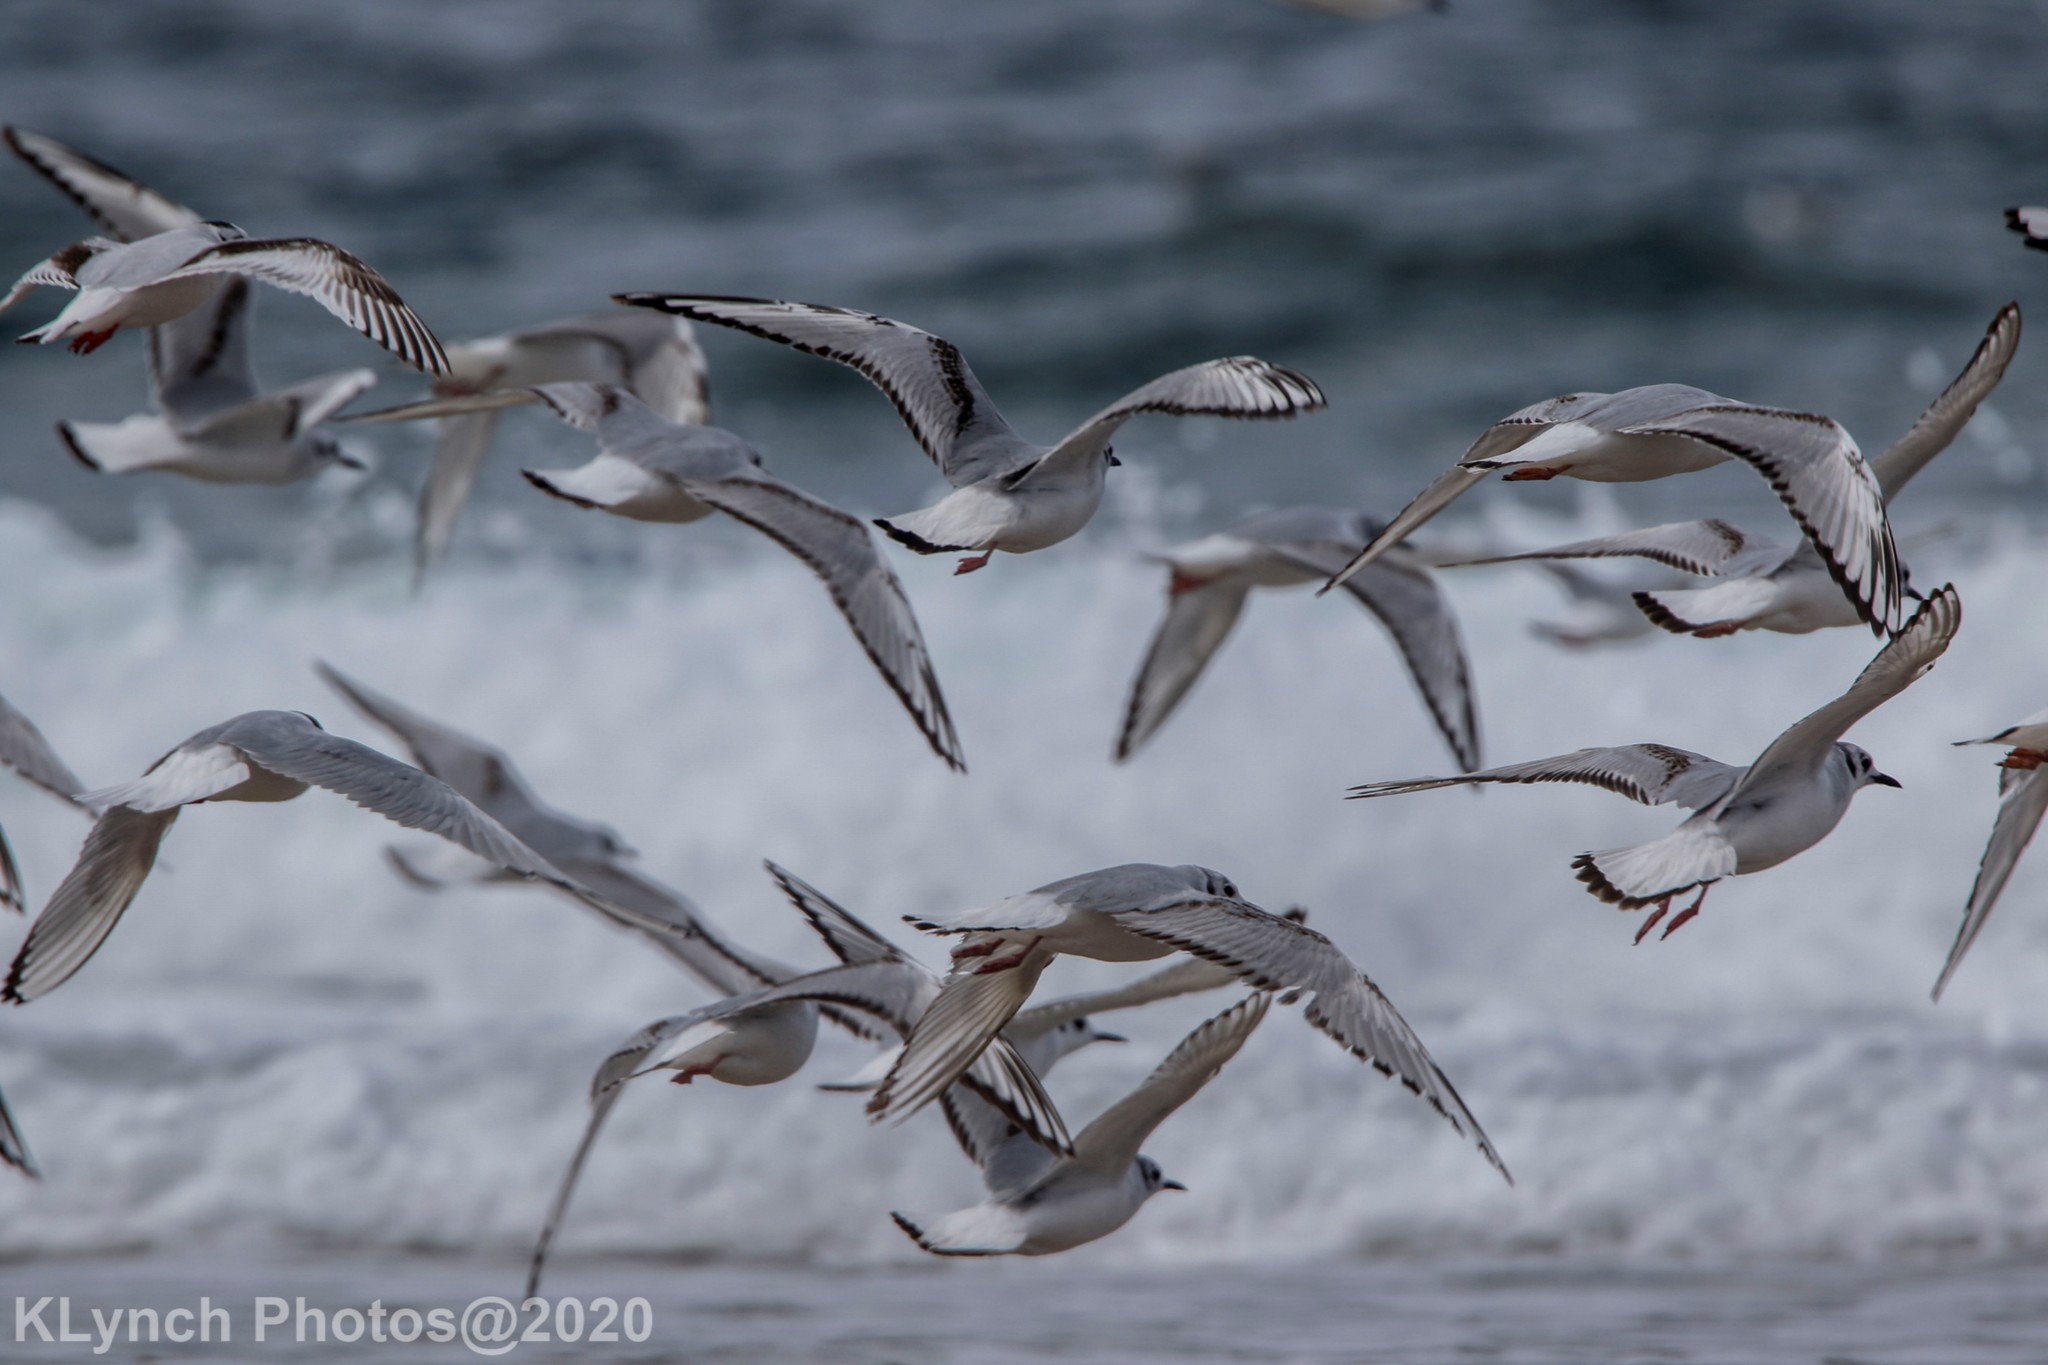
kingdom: Animalia
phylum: Chordata
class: Aves
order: Charadriiformes
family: Laridae
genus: Chroicocephalus
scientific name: Chroicocephalus philadelphia
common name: Bonaparte's gull
